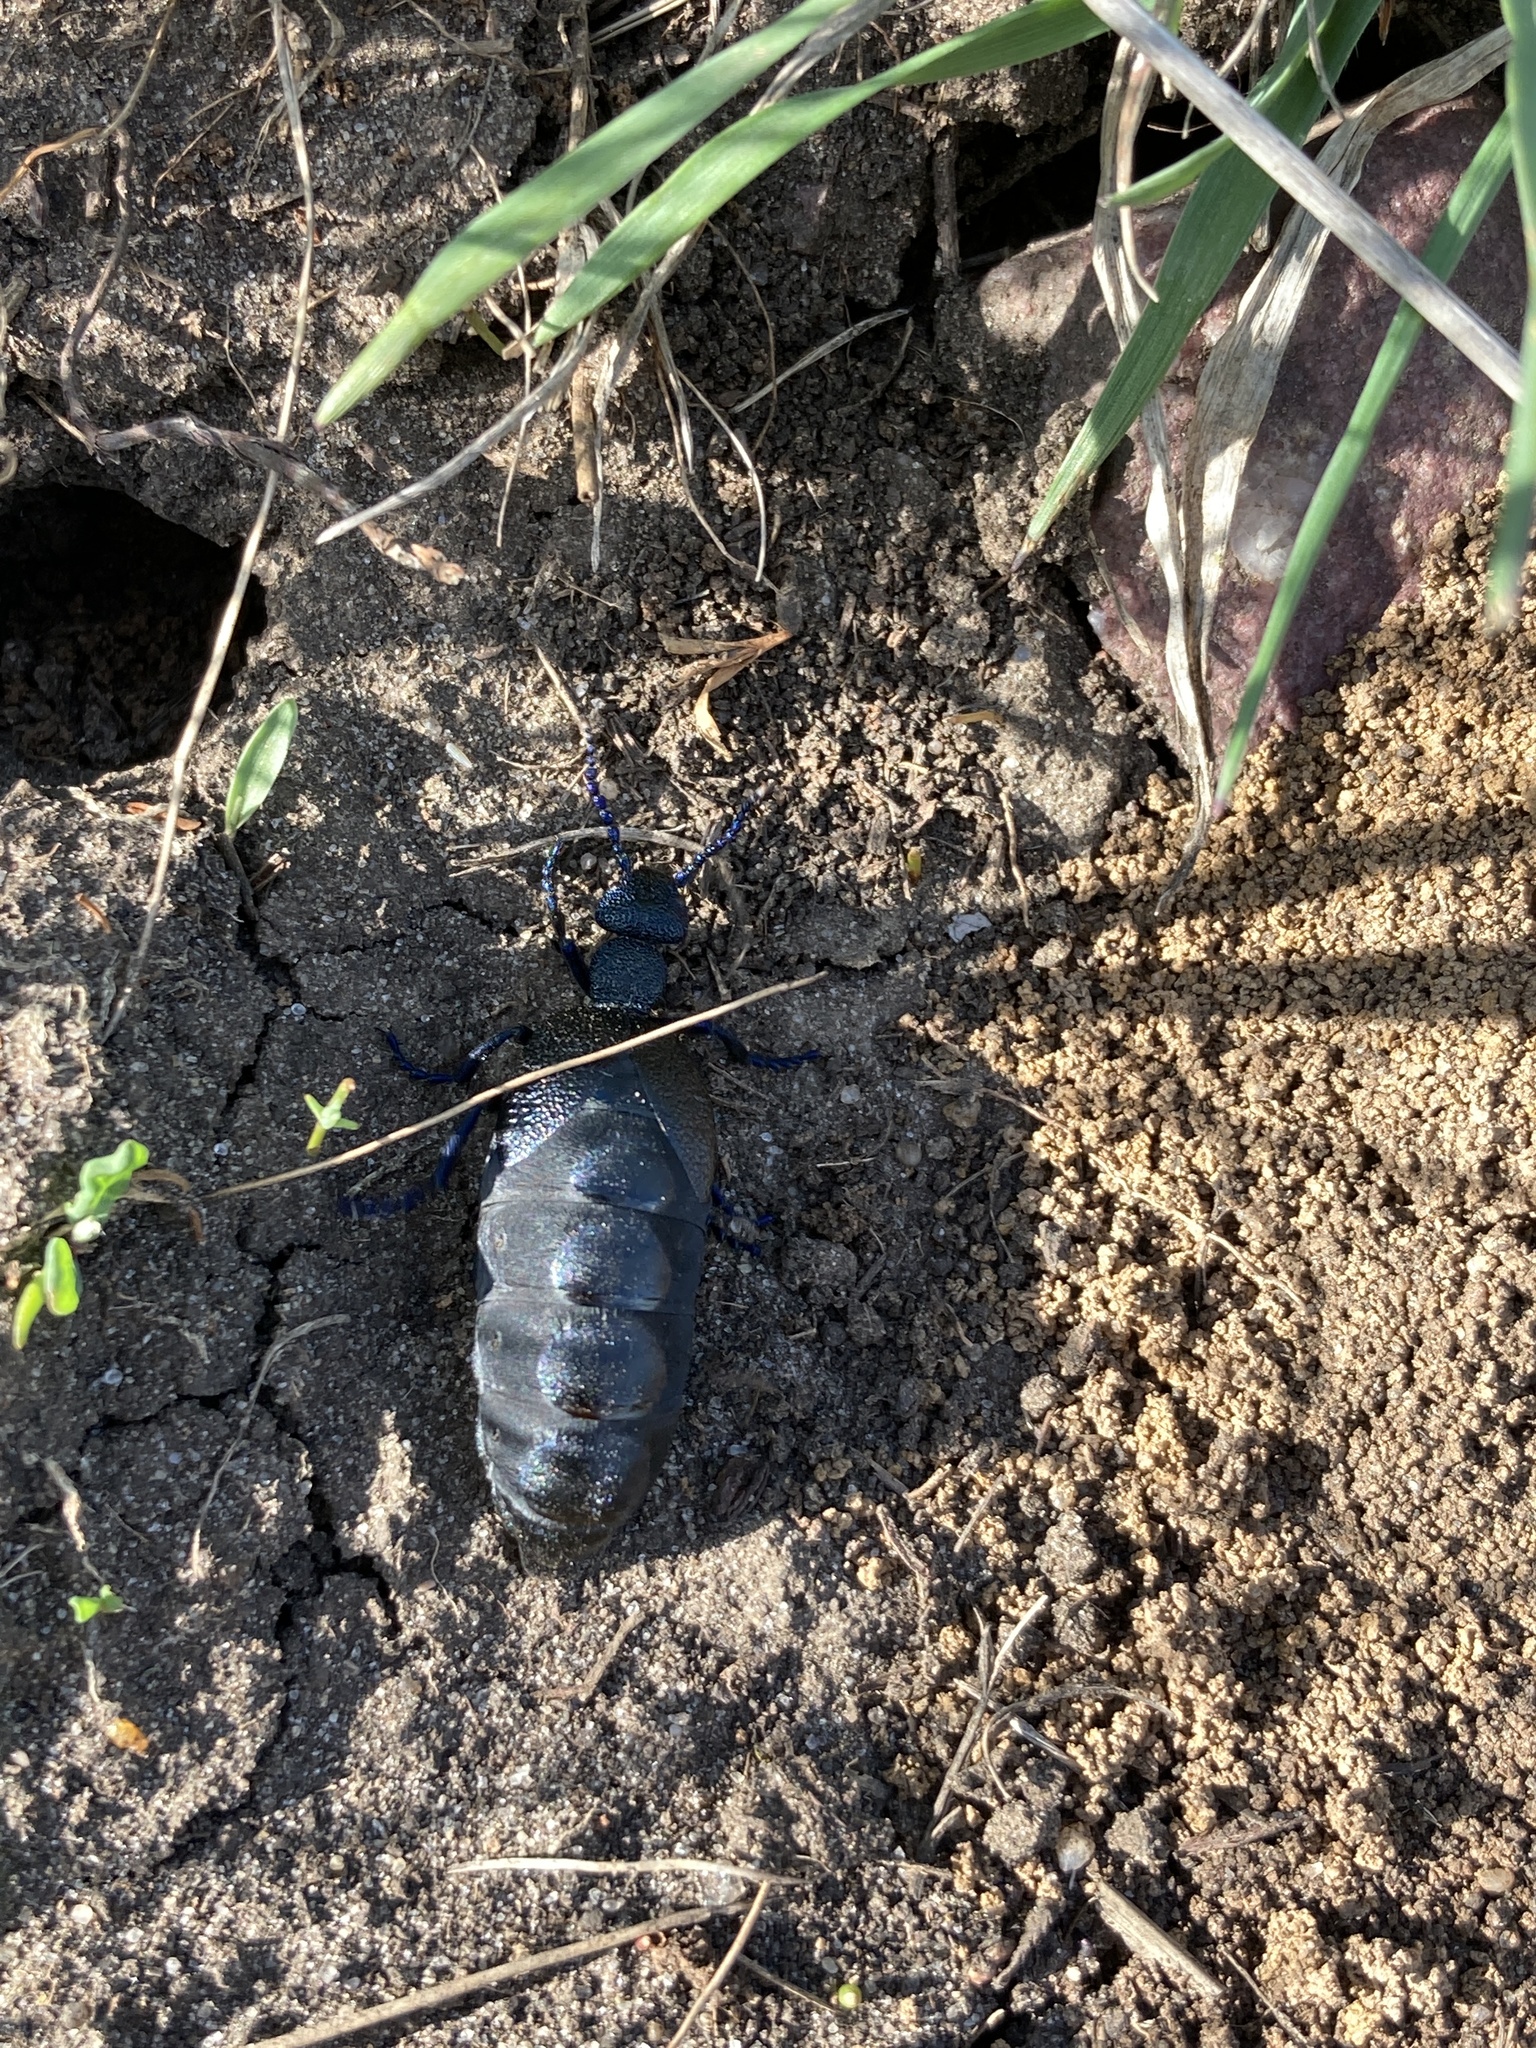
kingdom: Animalia
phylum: Arthropoda
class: Insecta
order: Coleoptera
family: Meloidae
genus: Meloe
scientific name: Meloe proscarabaeus
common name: Black oil-beetle
